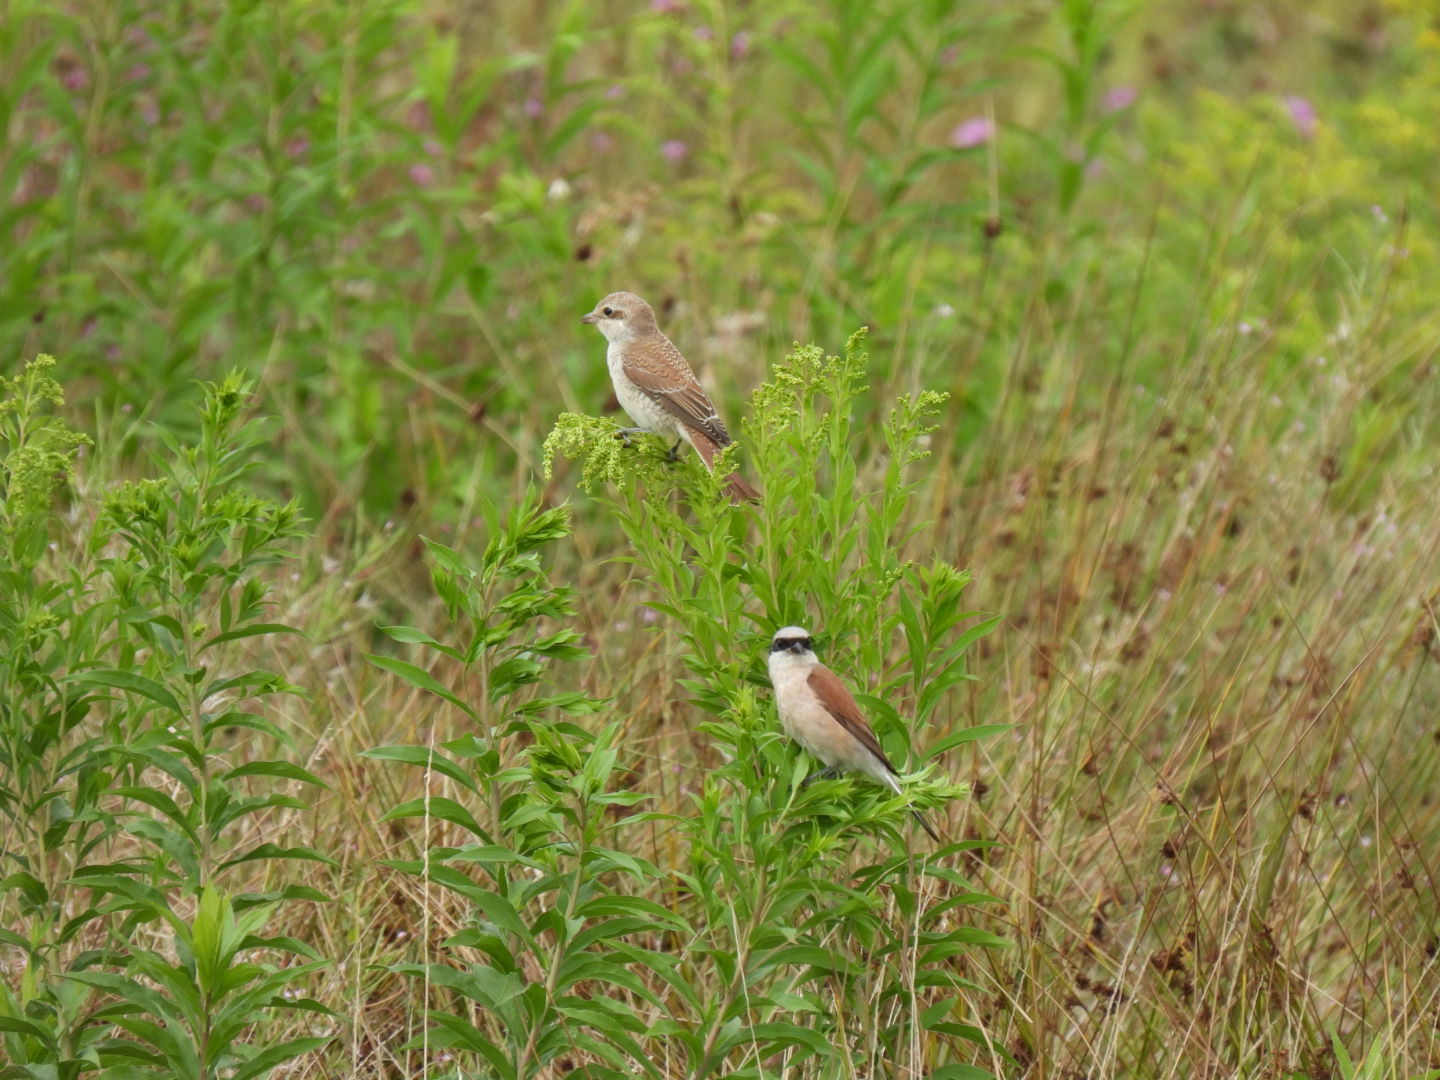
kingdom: Animalia
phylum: Chordata
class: Aves
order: Passeriformes
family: Laniidae
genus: Lanius
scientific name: Lanius collurio
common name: Red-backed shrike
